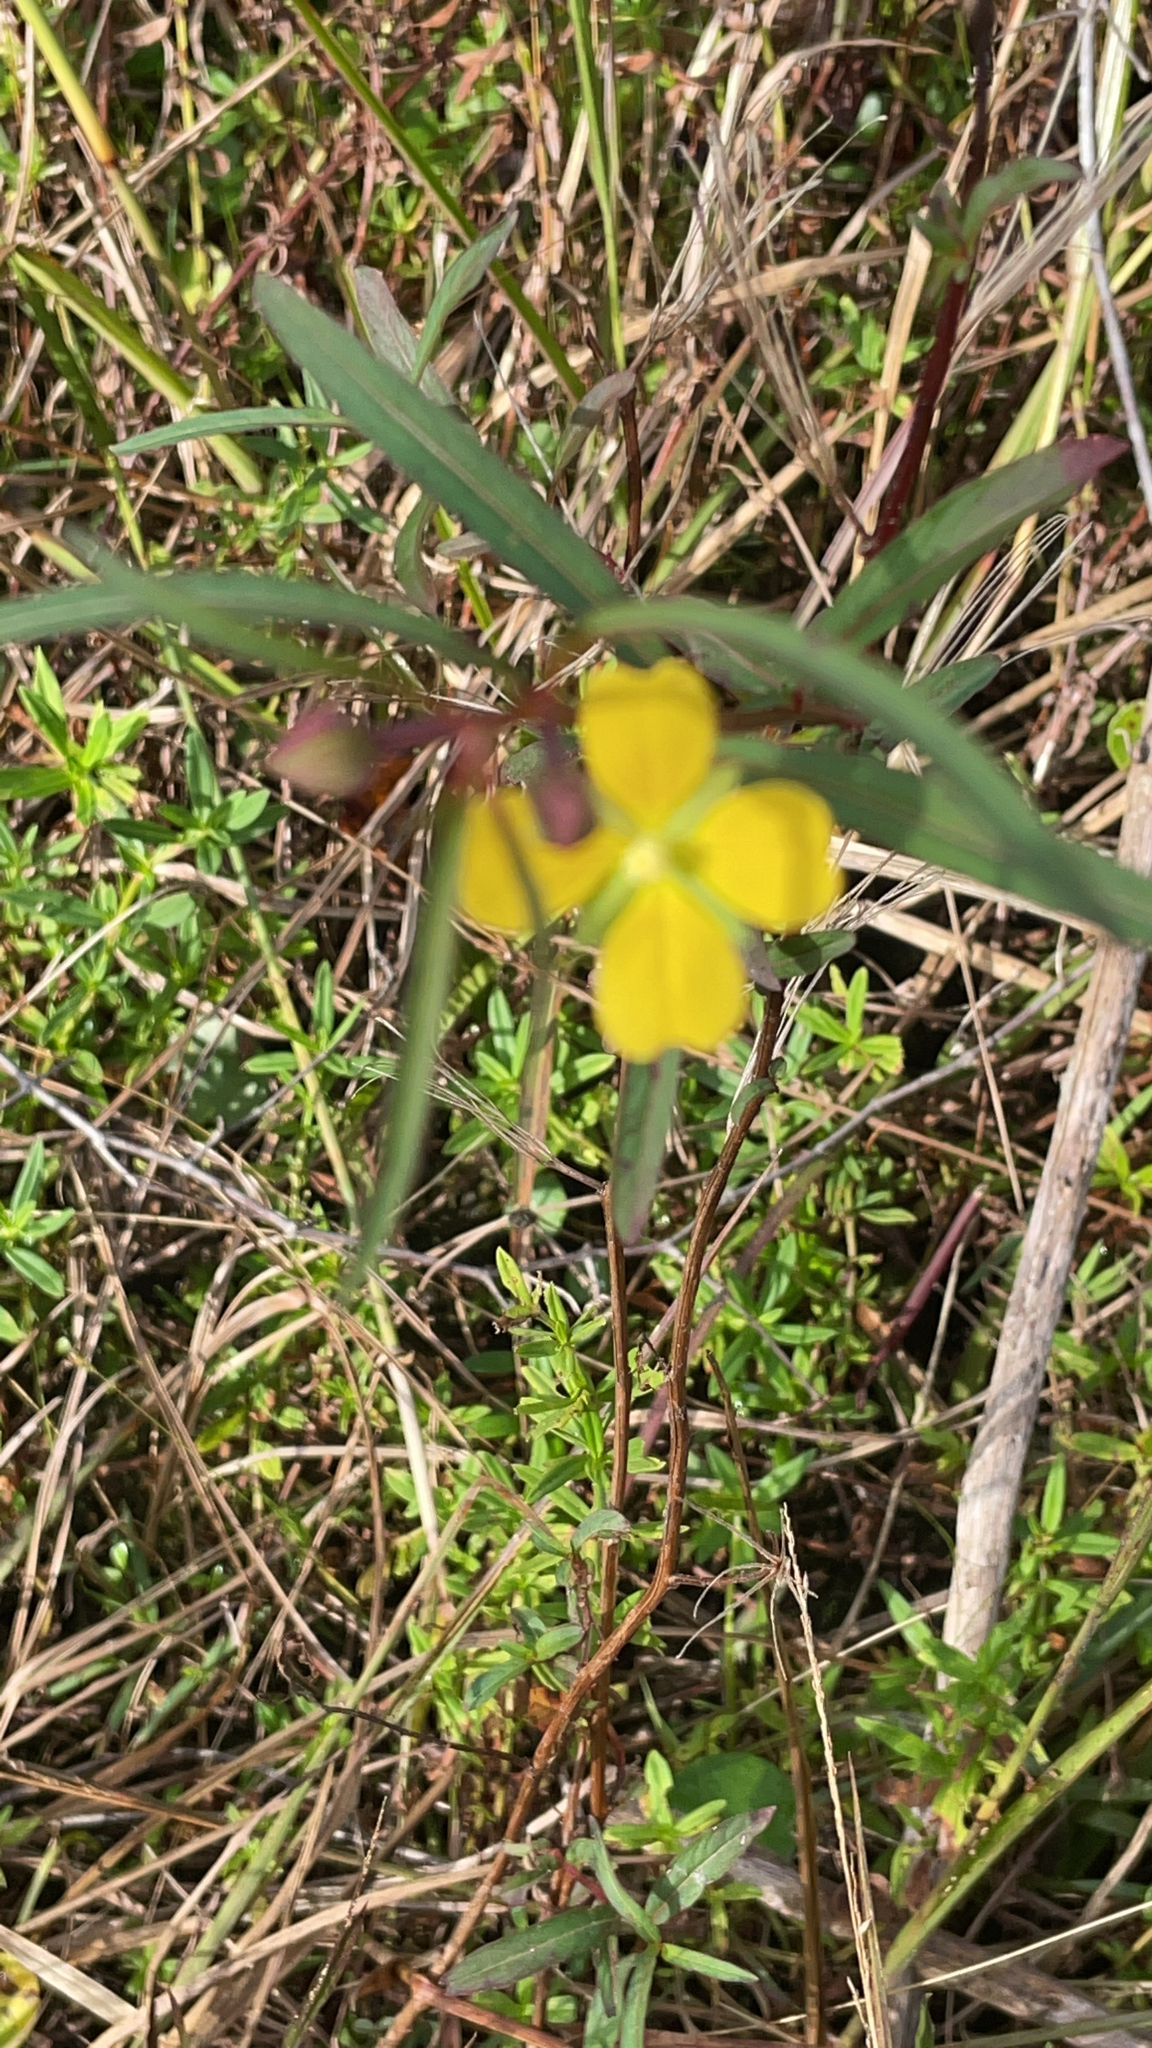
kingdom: Plantae
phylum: Tracheophyta
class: Magnoliopsida
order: Myrtales
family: Onagraceae
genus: Ludwigia
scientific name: Ludwigia octovalvis
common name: Water-primrose
